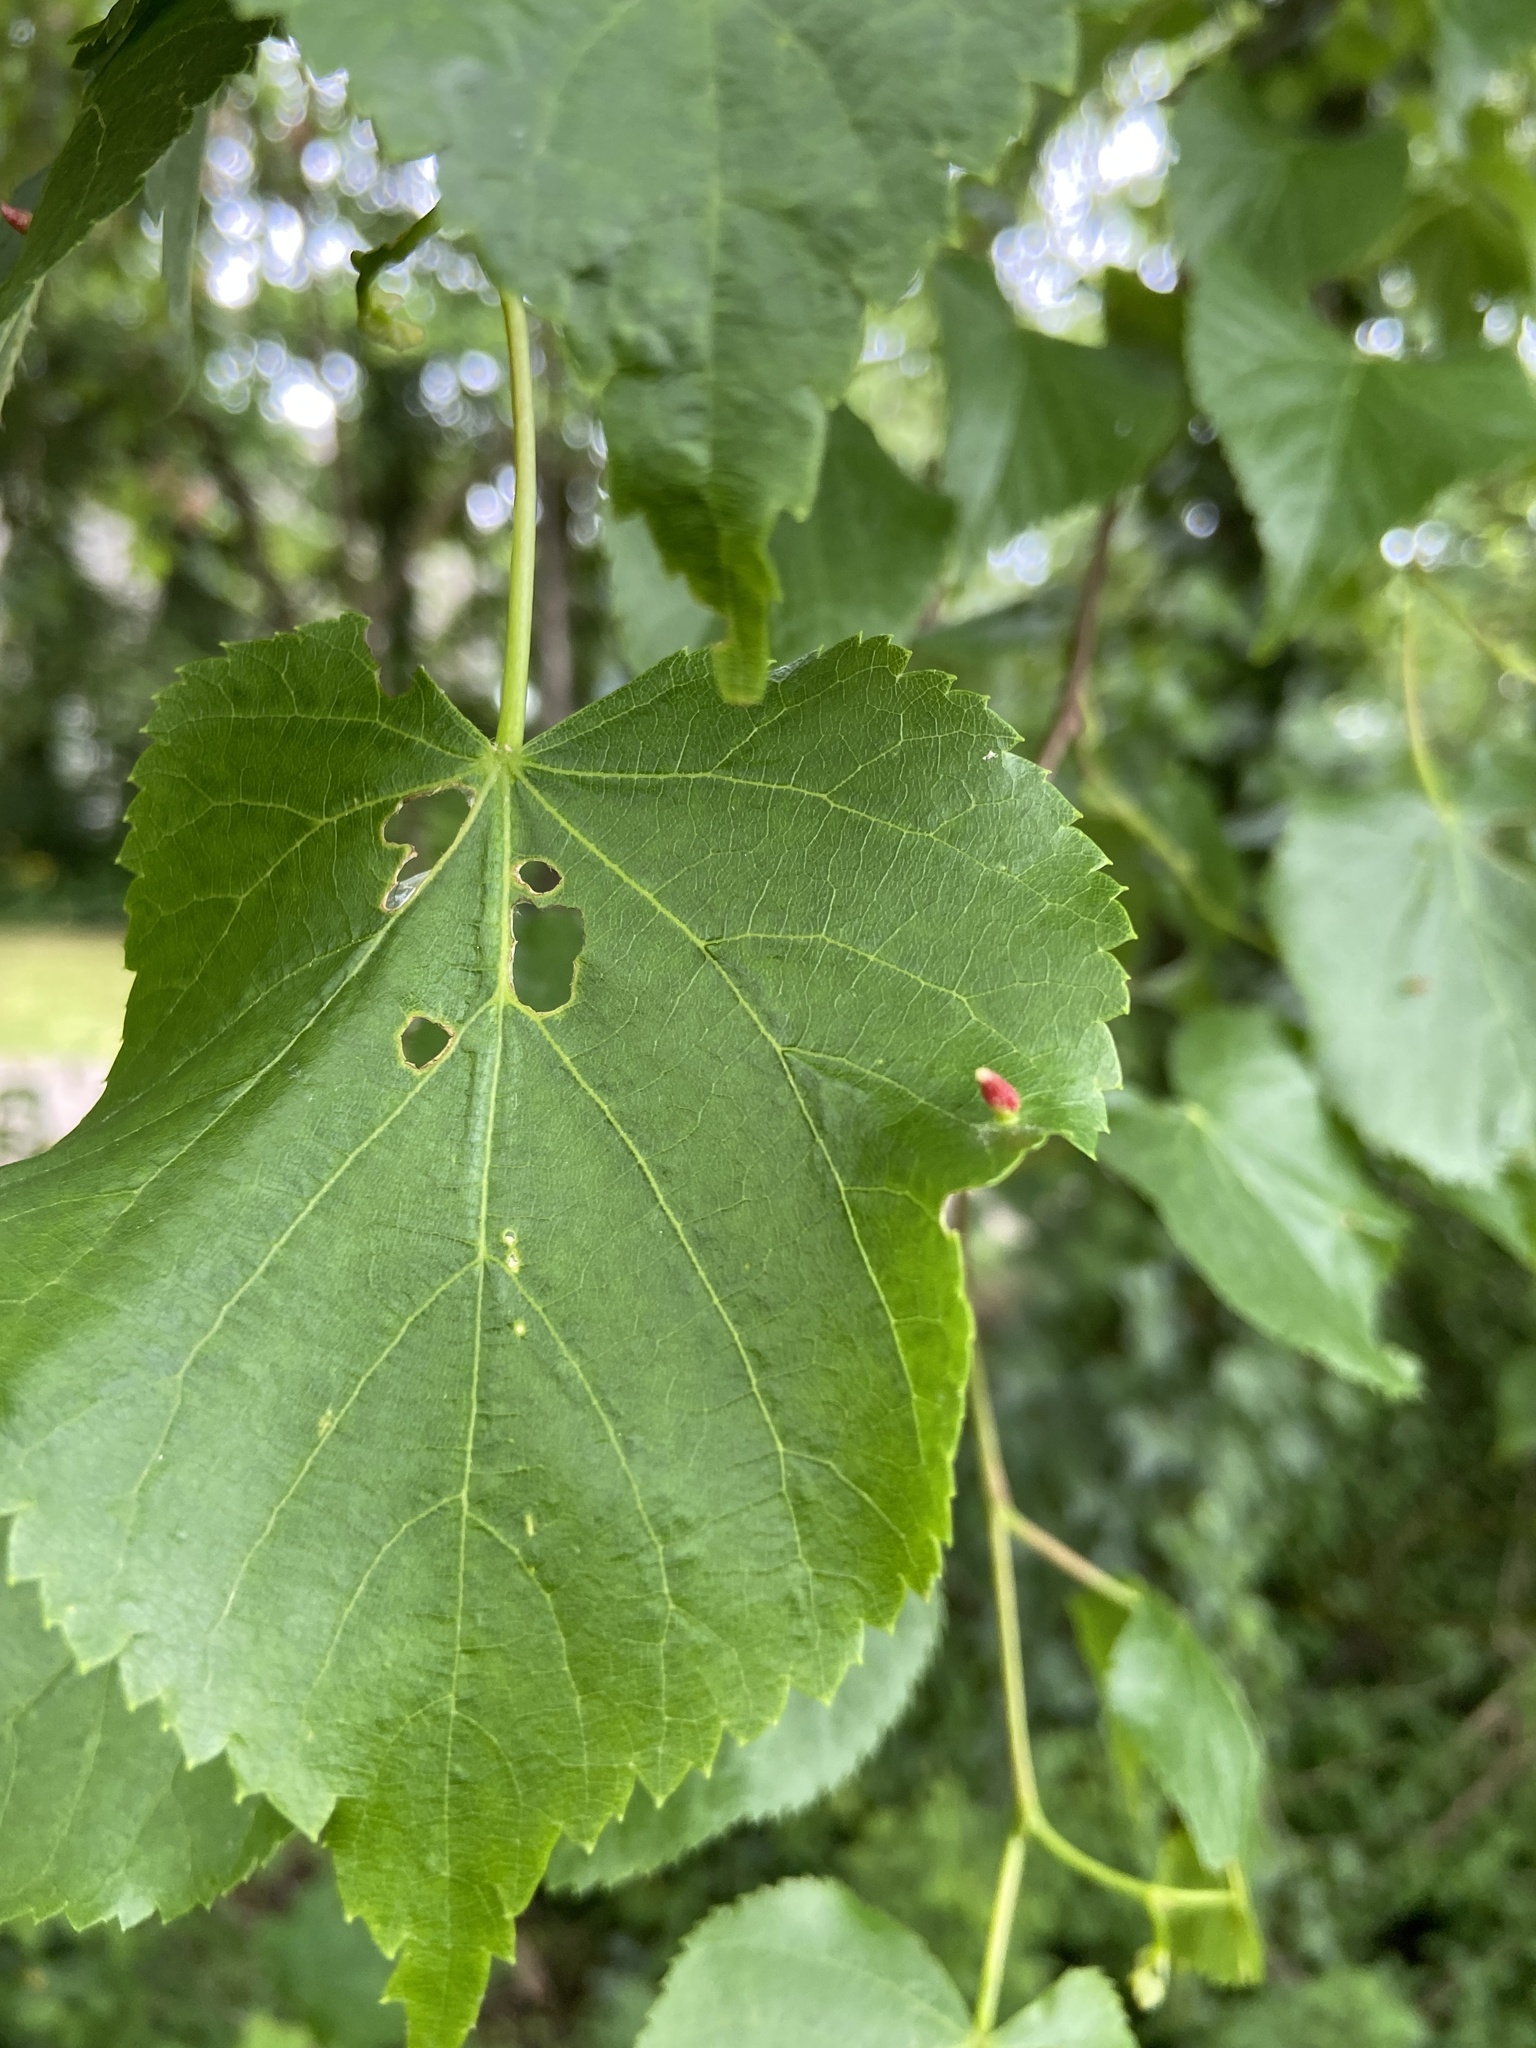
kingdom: Animalia
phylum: Arthropoda
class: Arachnida
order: Trombidiformes
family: Eriophyidae
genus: Eriophyes
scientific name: Eriophyes tiliae
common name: Red nail gall mite
